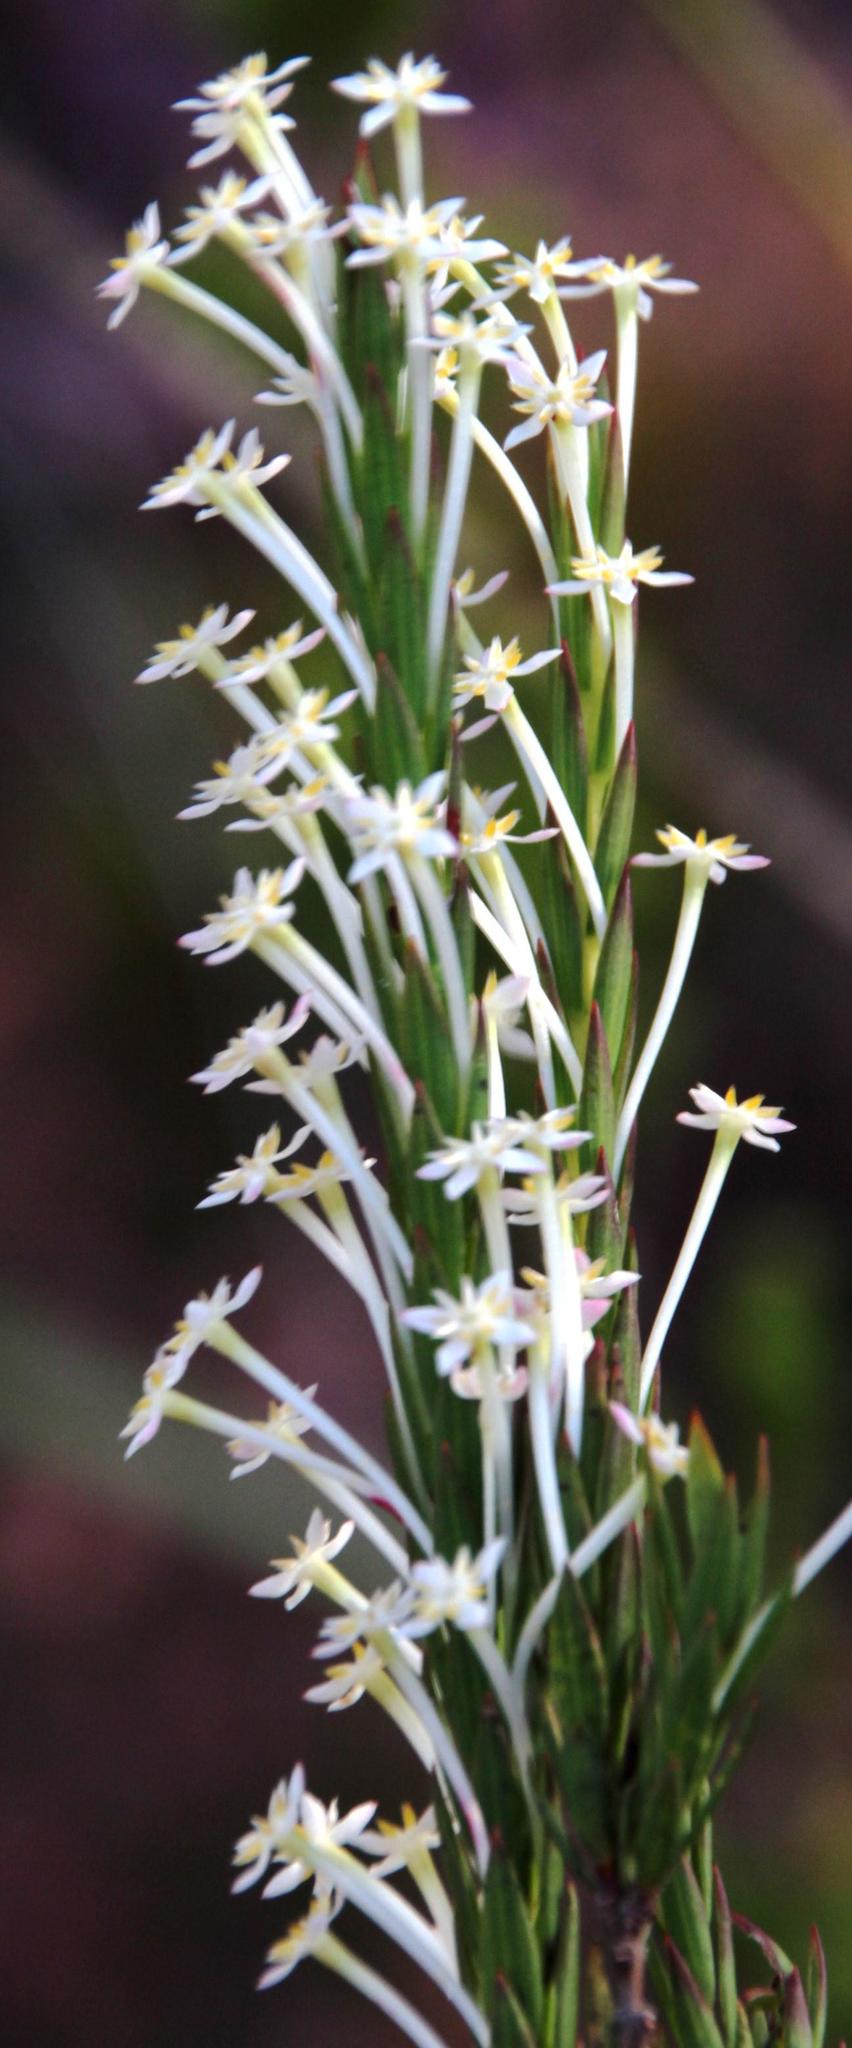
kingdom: Plantae
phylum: Tracheophyta
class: Magnoliopsida
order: Malvales
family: Thymelaeaceae
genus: Struthiola
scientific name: Struthiola myrsinites
